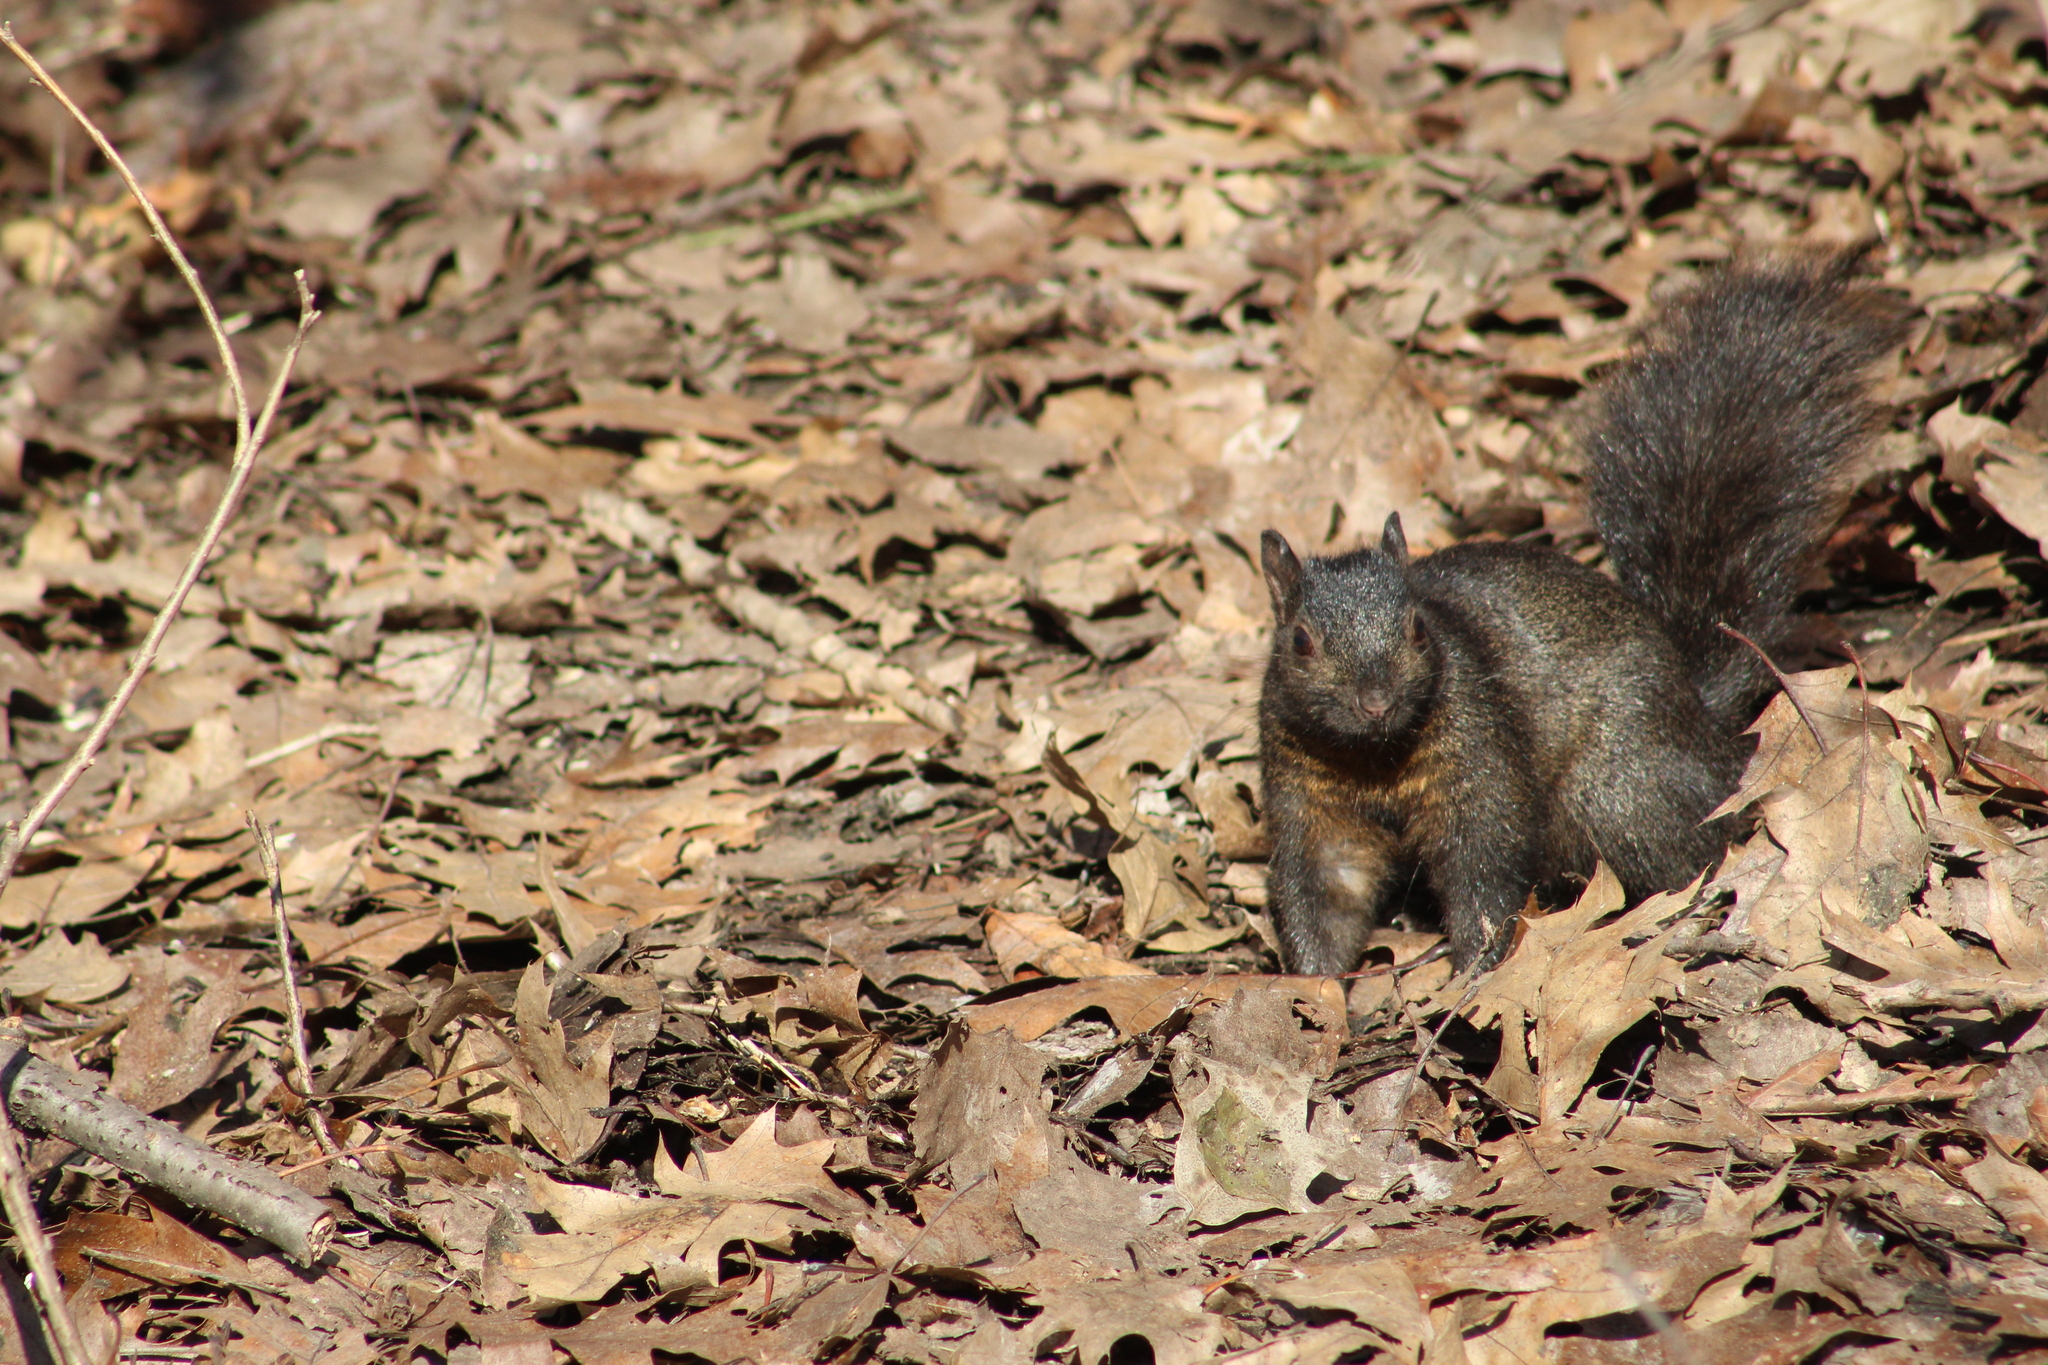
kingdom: Animalia
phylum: Chordata
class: Mammalia
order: Rodentia
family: Sciuridae
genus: Sciurus
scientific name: Sciurus carolinensis
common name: Eastern gray squirrel
